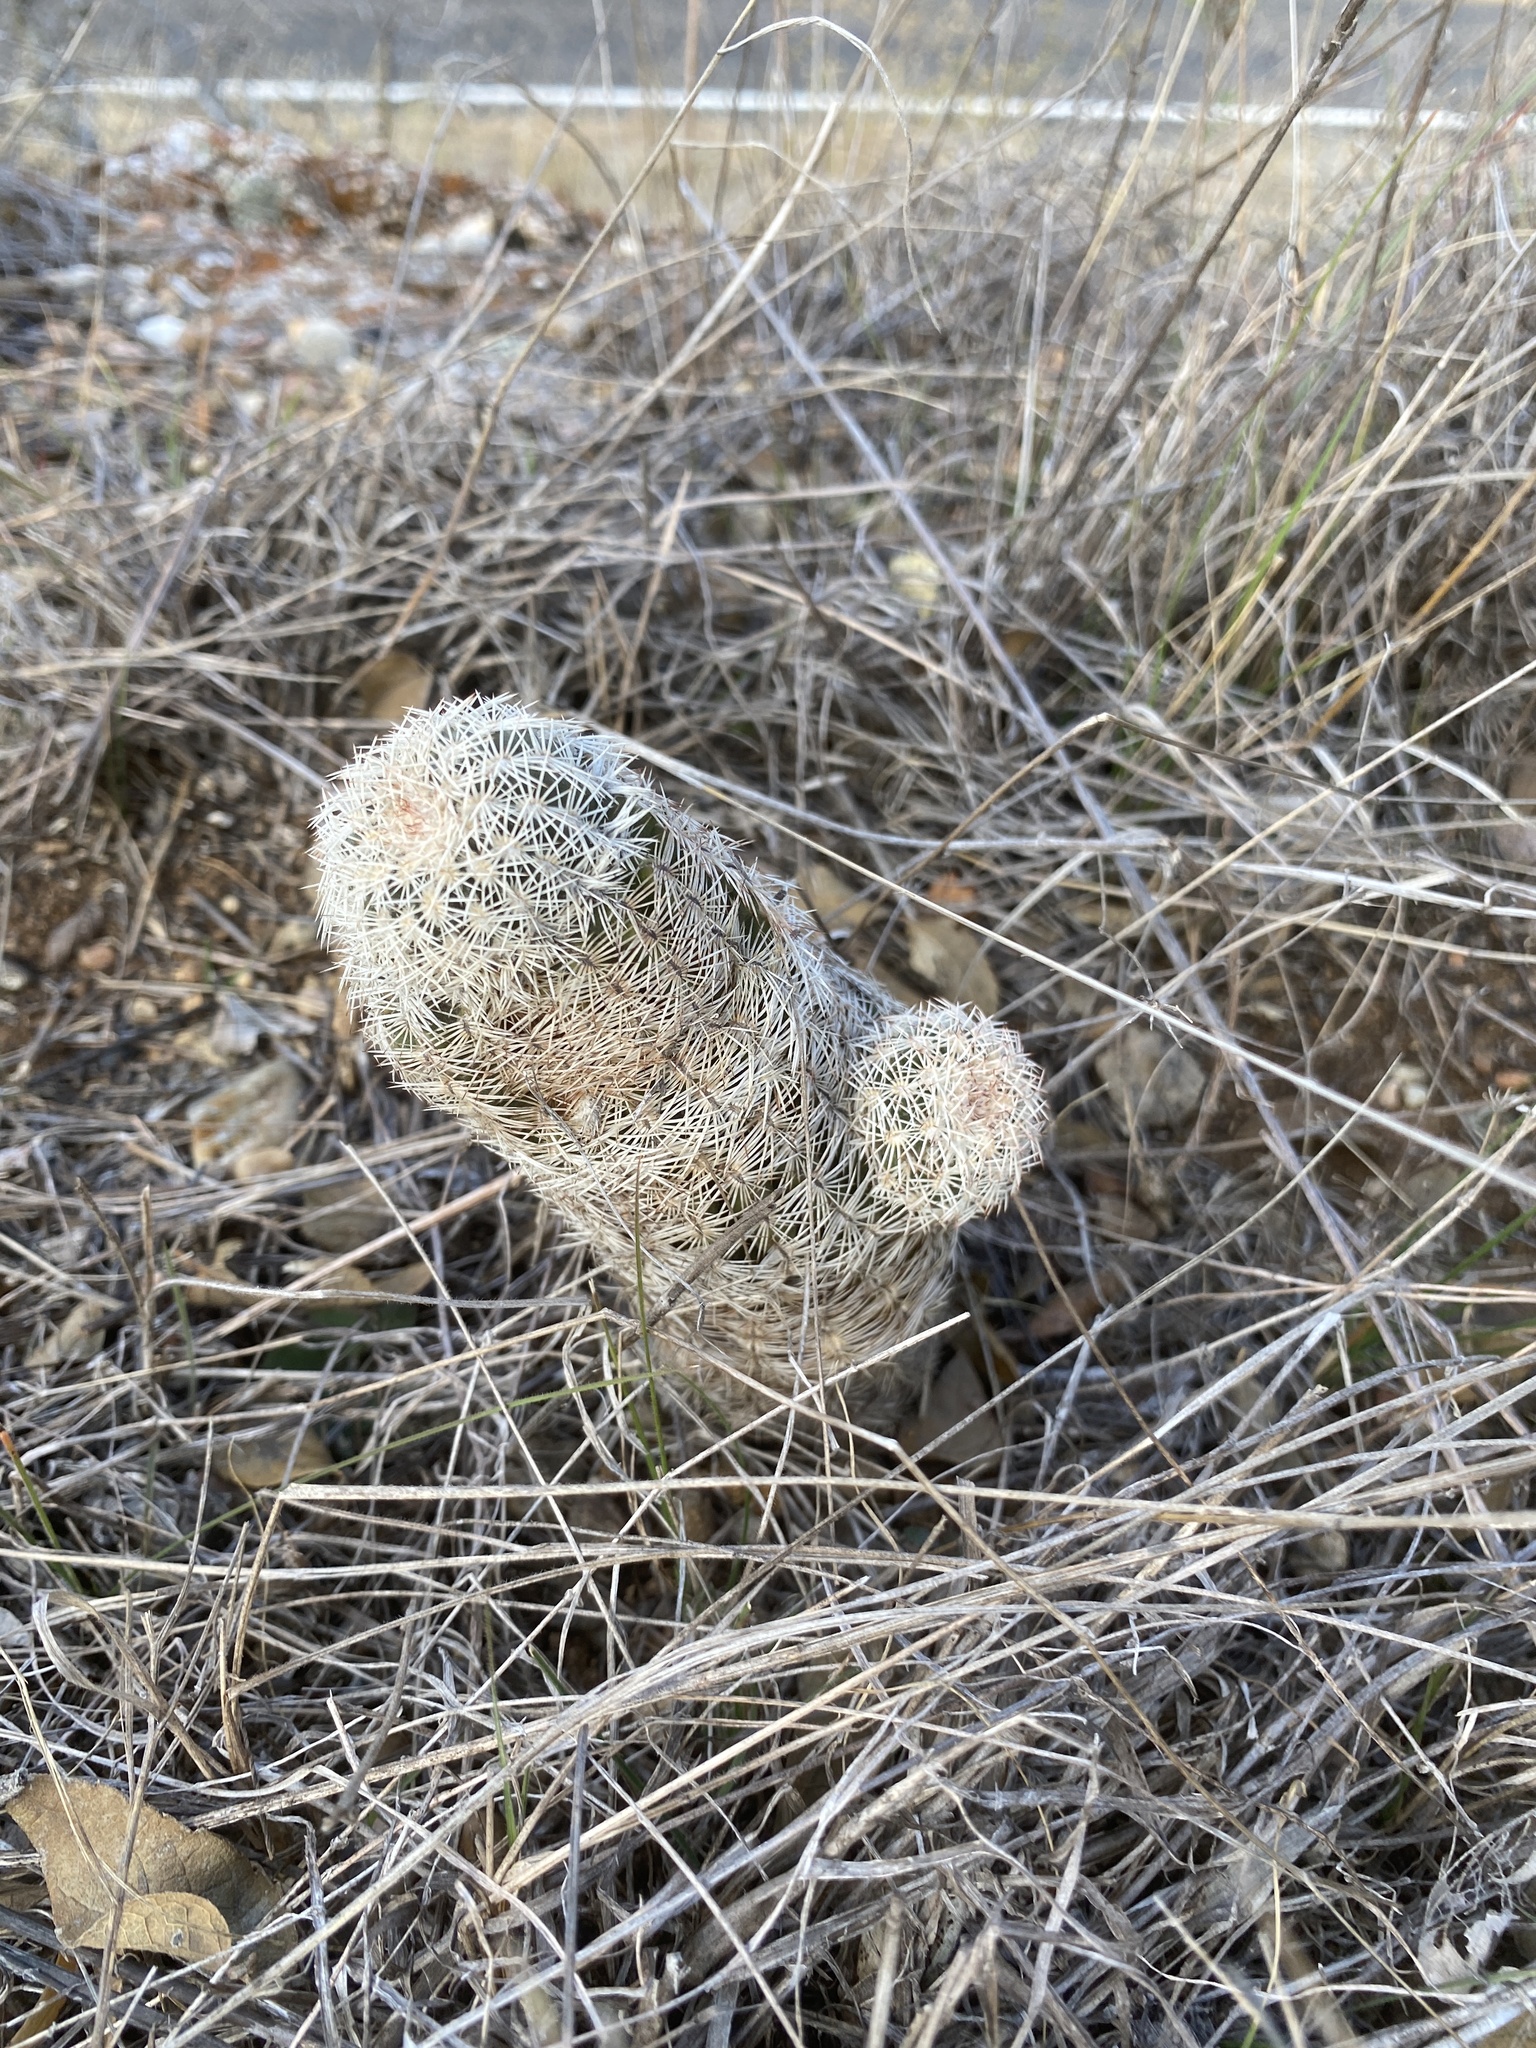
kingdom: Plantae
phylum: Tracheophyta
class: Magnoliopsida
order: Caryophyllales
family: Cactaceae
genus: Echinocereus
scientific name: Echinocereus reichenbachii
